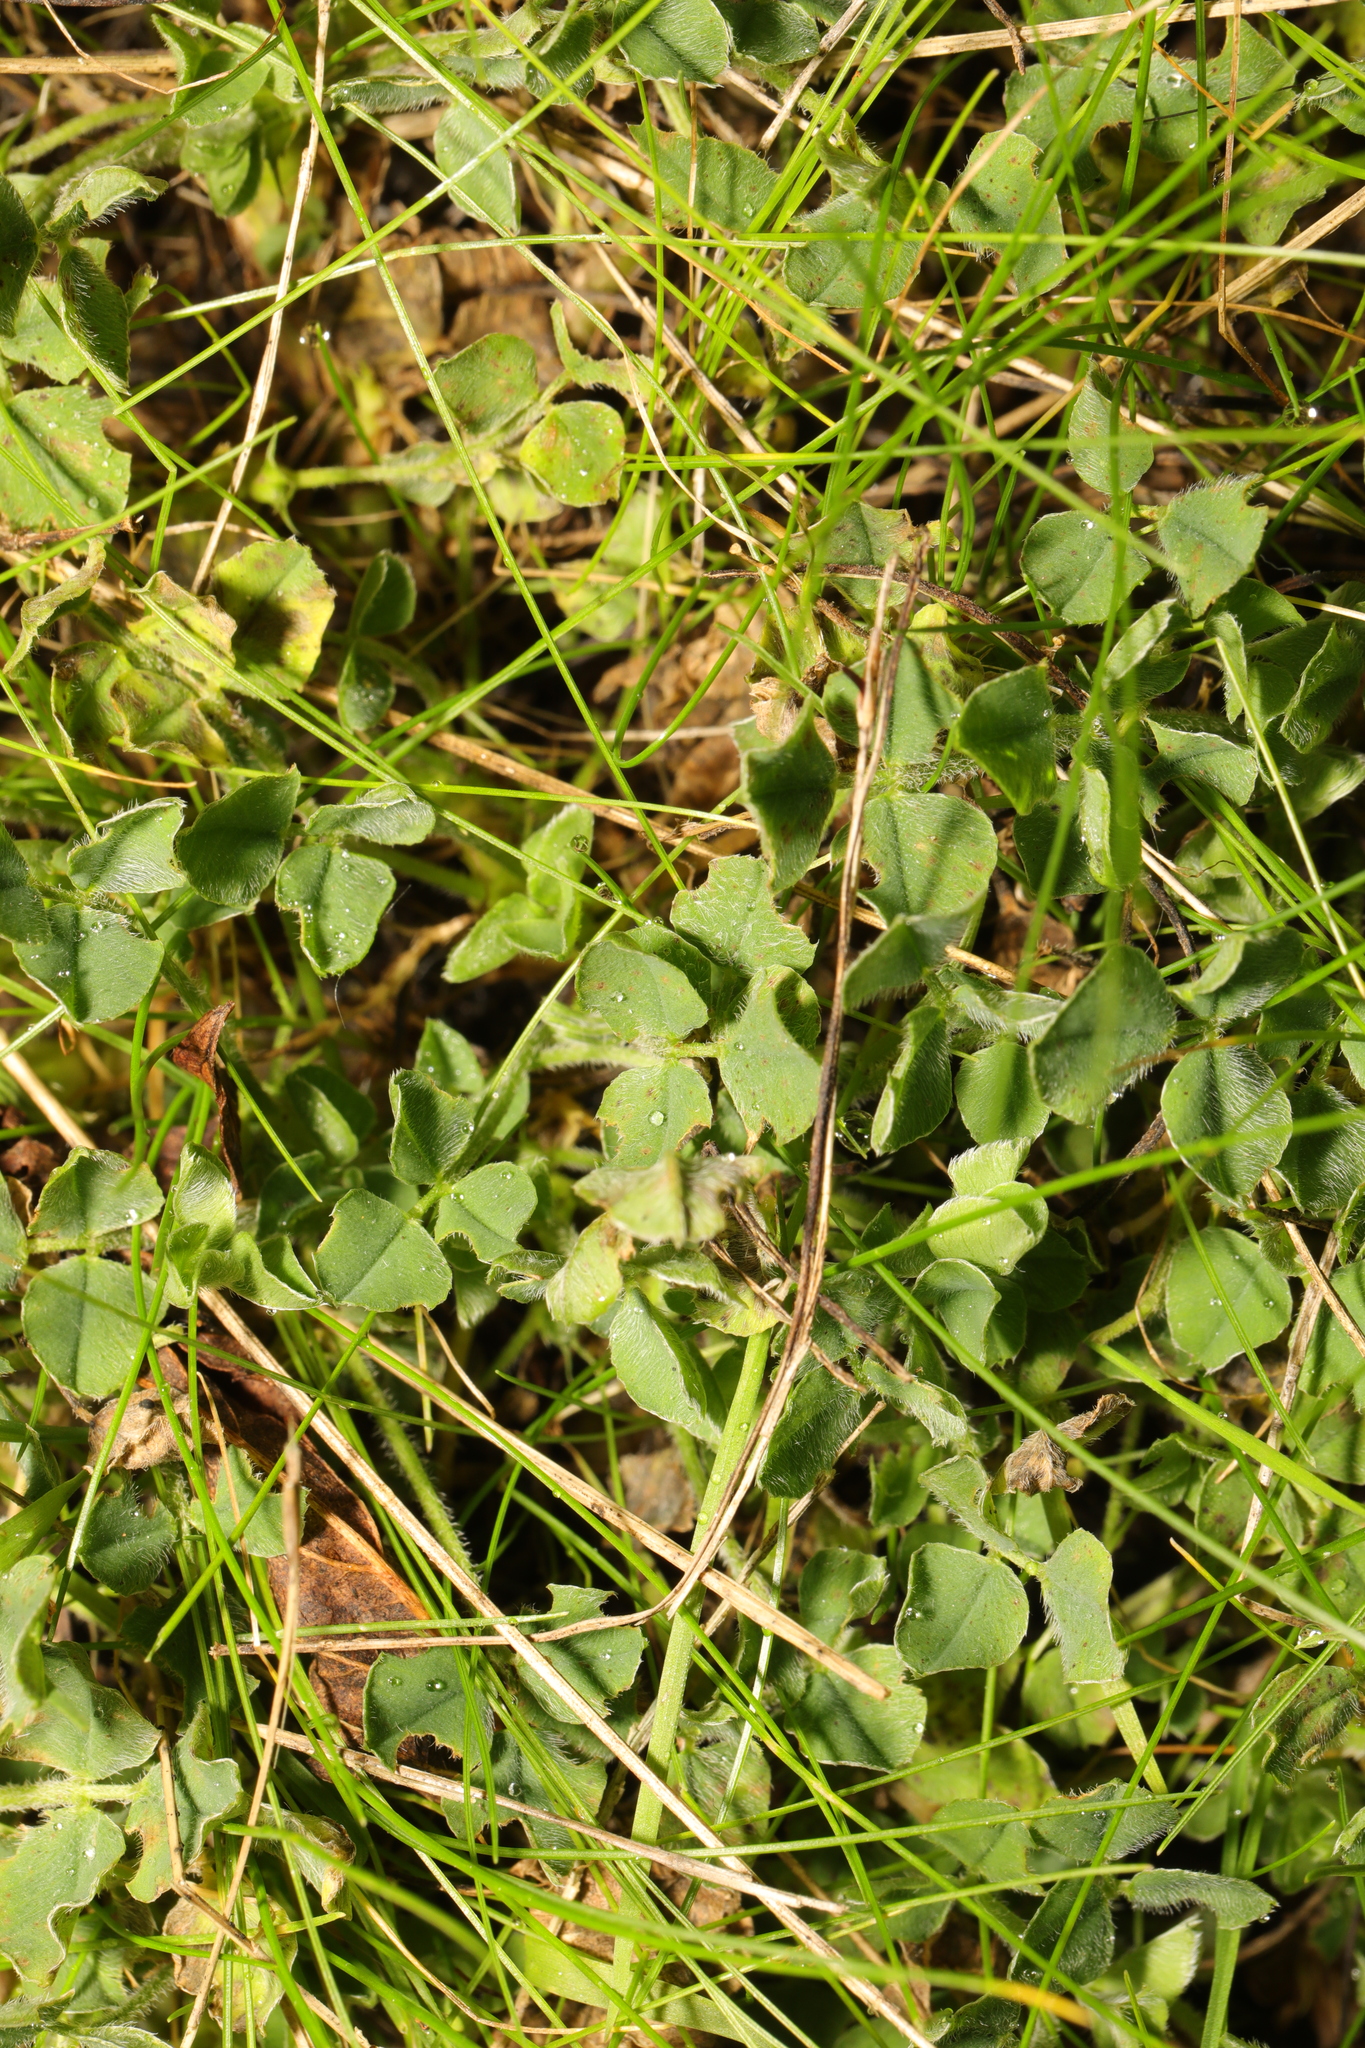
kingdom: Plantae
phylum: Tracheophyta
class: Magnoliopsida
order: Fabales
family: Fabaceae
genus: Medicago
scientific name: Medicago lupulina
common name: Black medick
